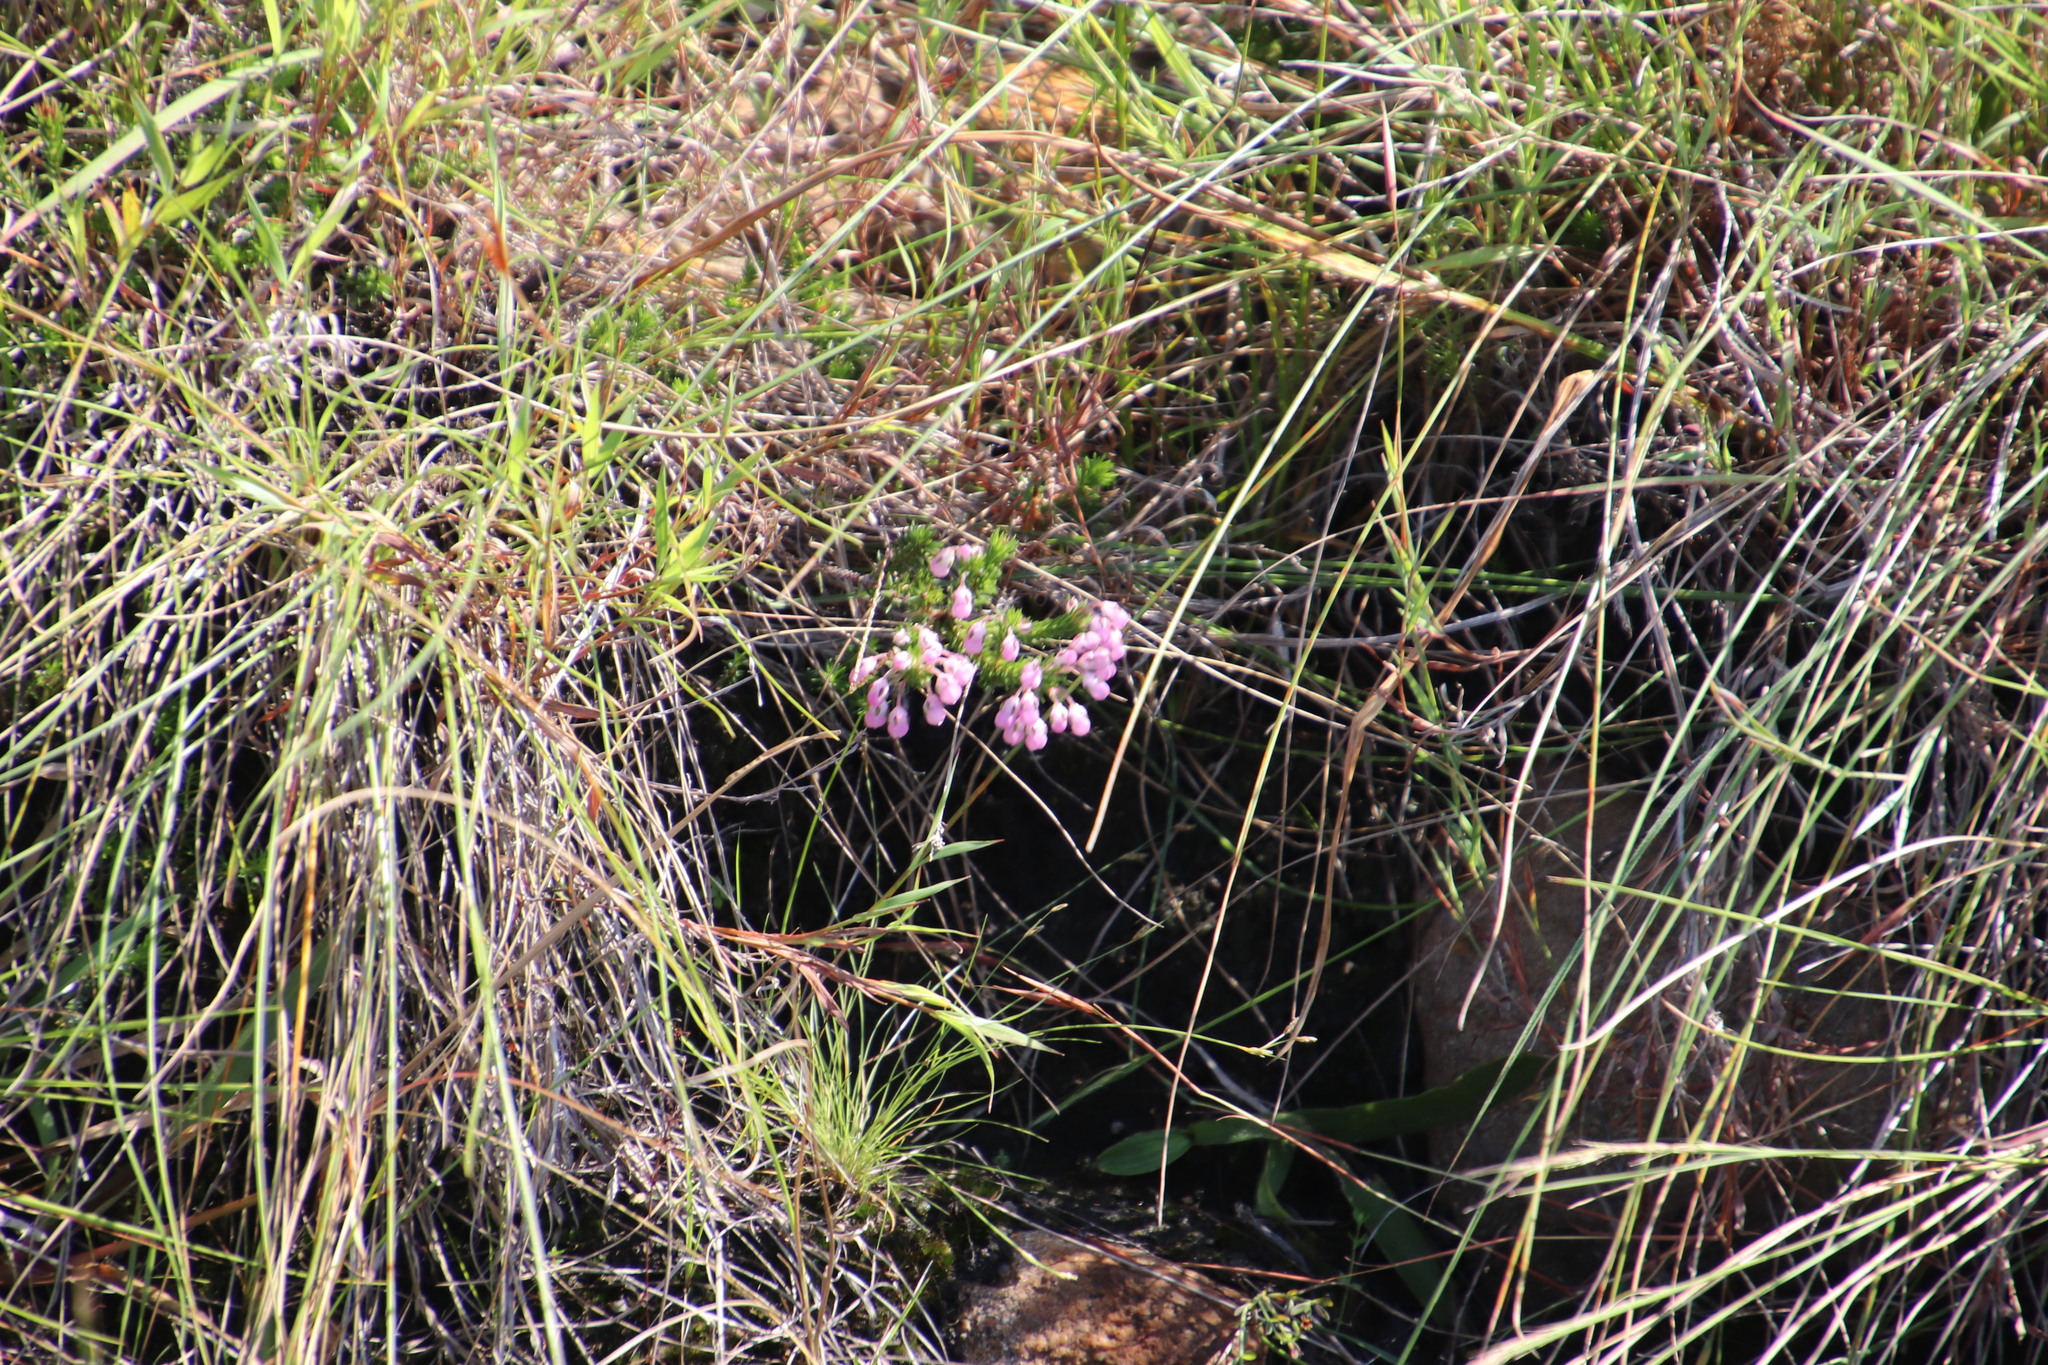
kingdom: Plantae
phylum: Tracheophyta
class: Magnoliopsida
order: Ericales
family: Ericaceae
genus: Erica
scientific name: Erica cubica
